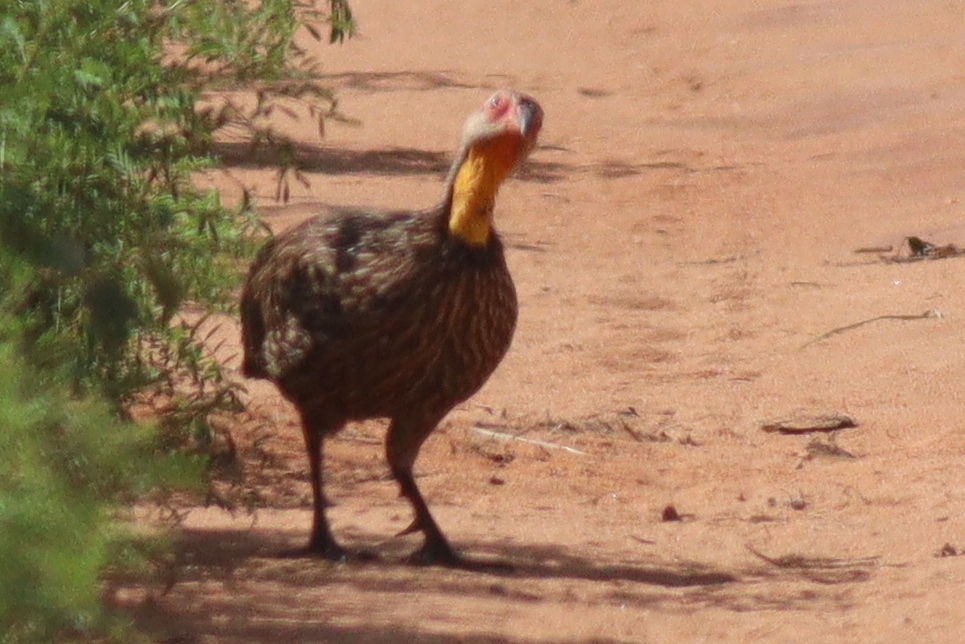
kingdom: Animalia
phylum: Chordata
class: Aves
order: Galliformes
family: Phasianidae
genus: Pternistis
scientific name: Pternistis leucoscepus
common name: Yellow-necked spurfowl
